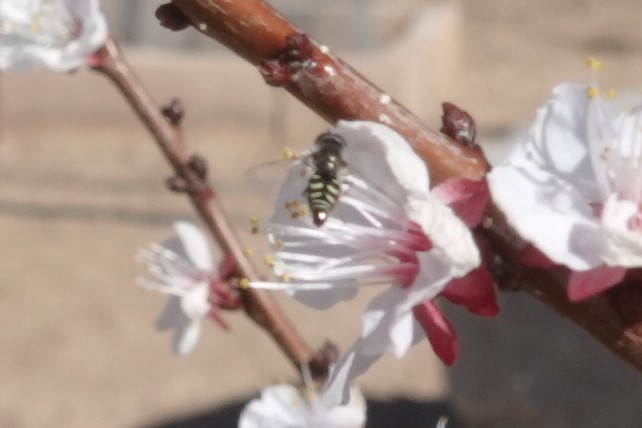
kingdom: Animalia
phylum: Arthropoda
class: Insecta
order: Diptera
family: Syrphidae
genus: Eupeodes
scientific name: Eupeodes volucris
